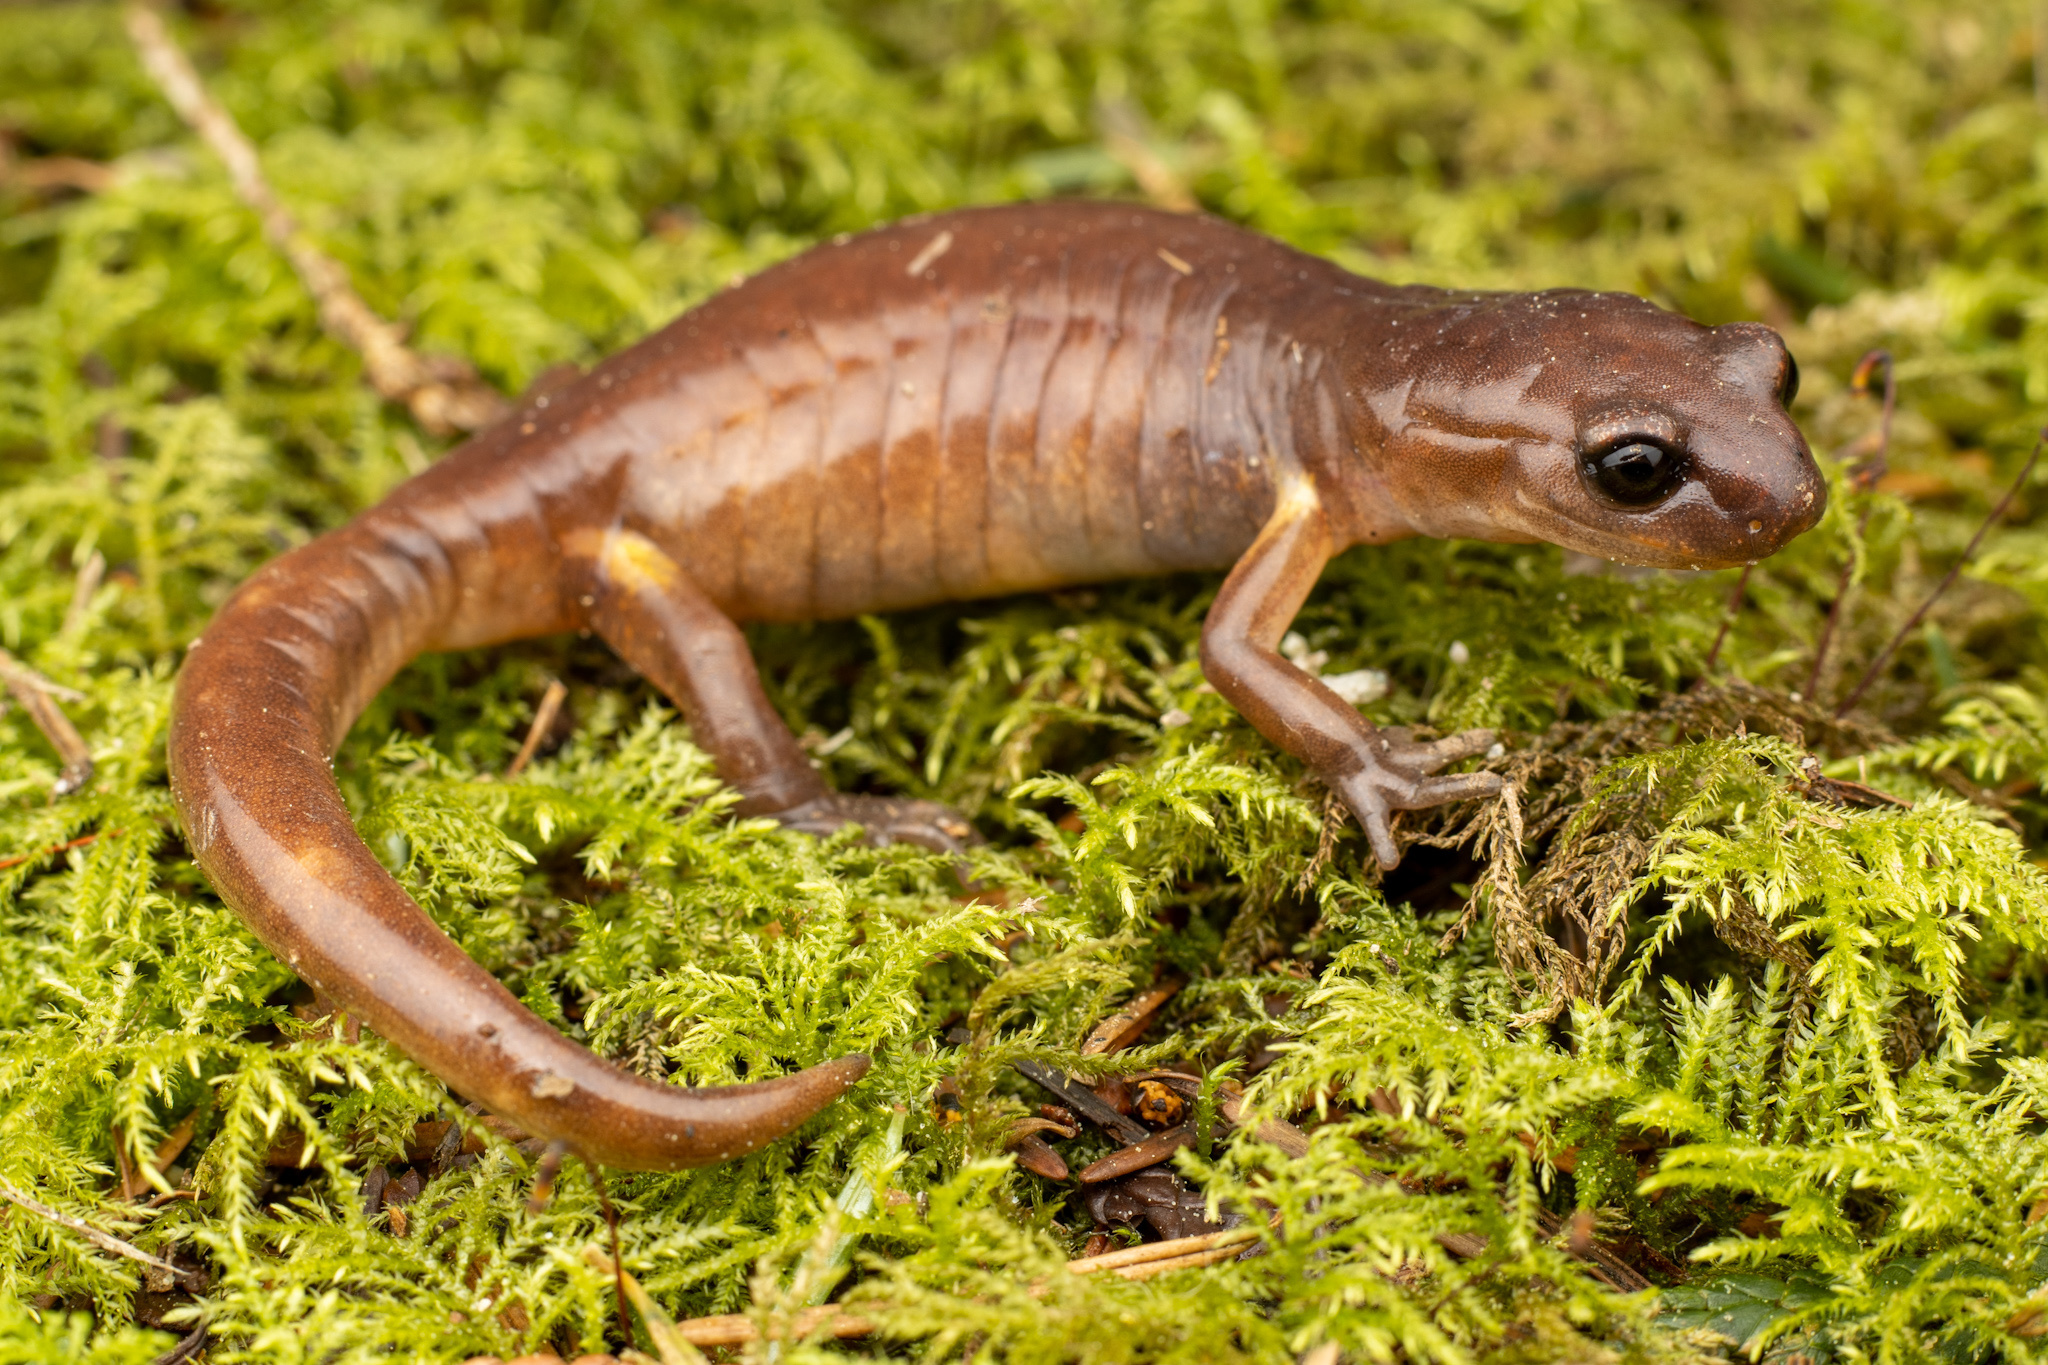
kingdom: Animalia
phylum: Chordata
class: Amphibia
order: Caudata
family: Plethodontidae
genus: Ensatina
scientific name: Ensatina eschscholtzii
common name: Ensatina
